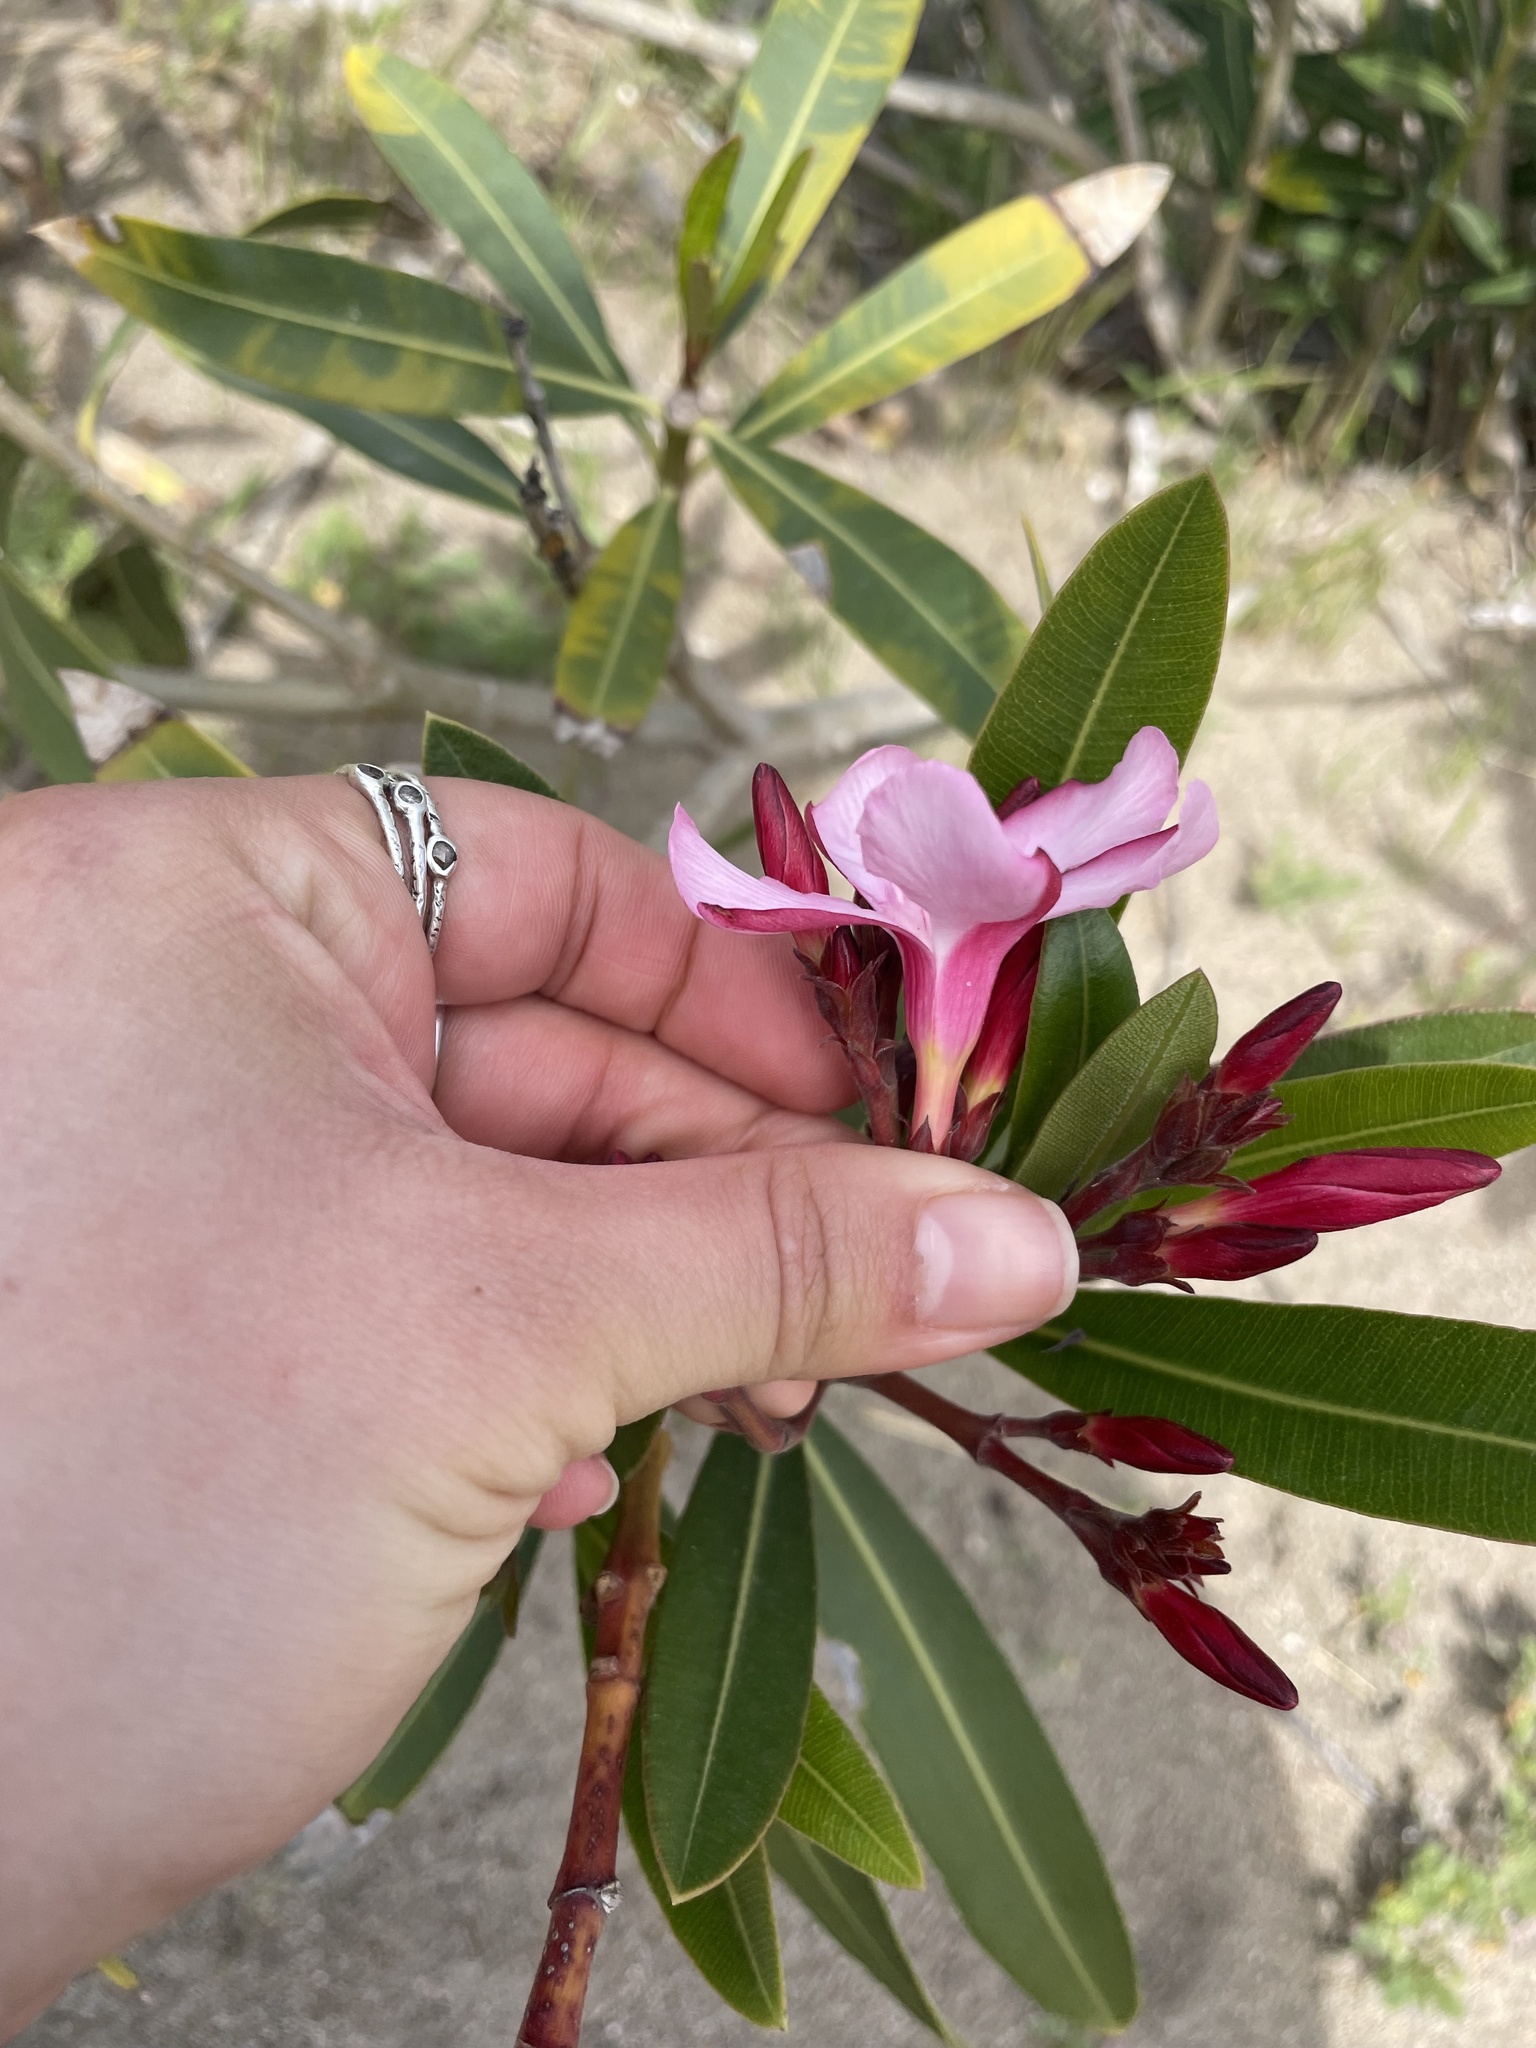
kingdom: Plantae
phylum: Tracheophyta
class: Magnoliopsida
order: Gentianales
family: Apocynaceae
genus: Nerium
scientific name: Nerium oleander
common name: Oleander
